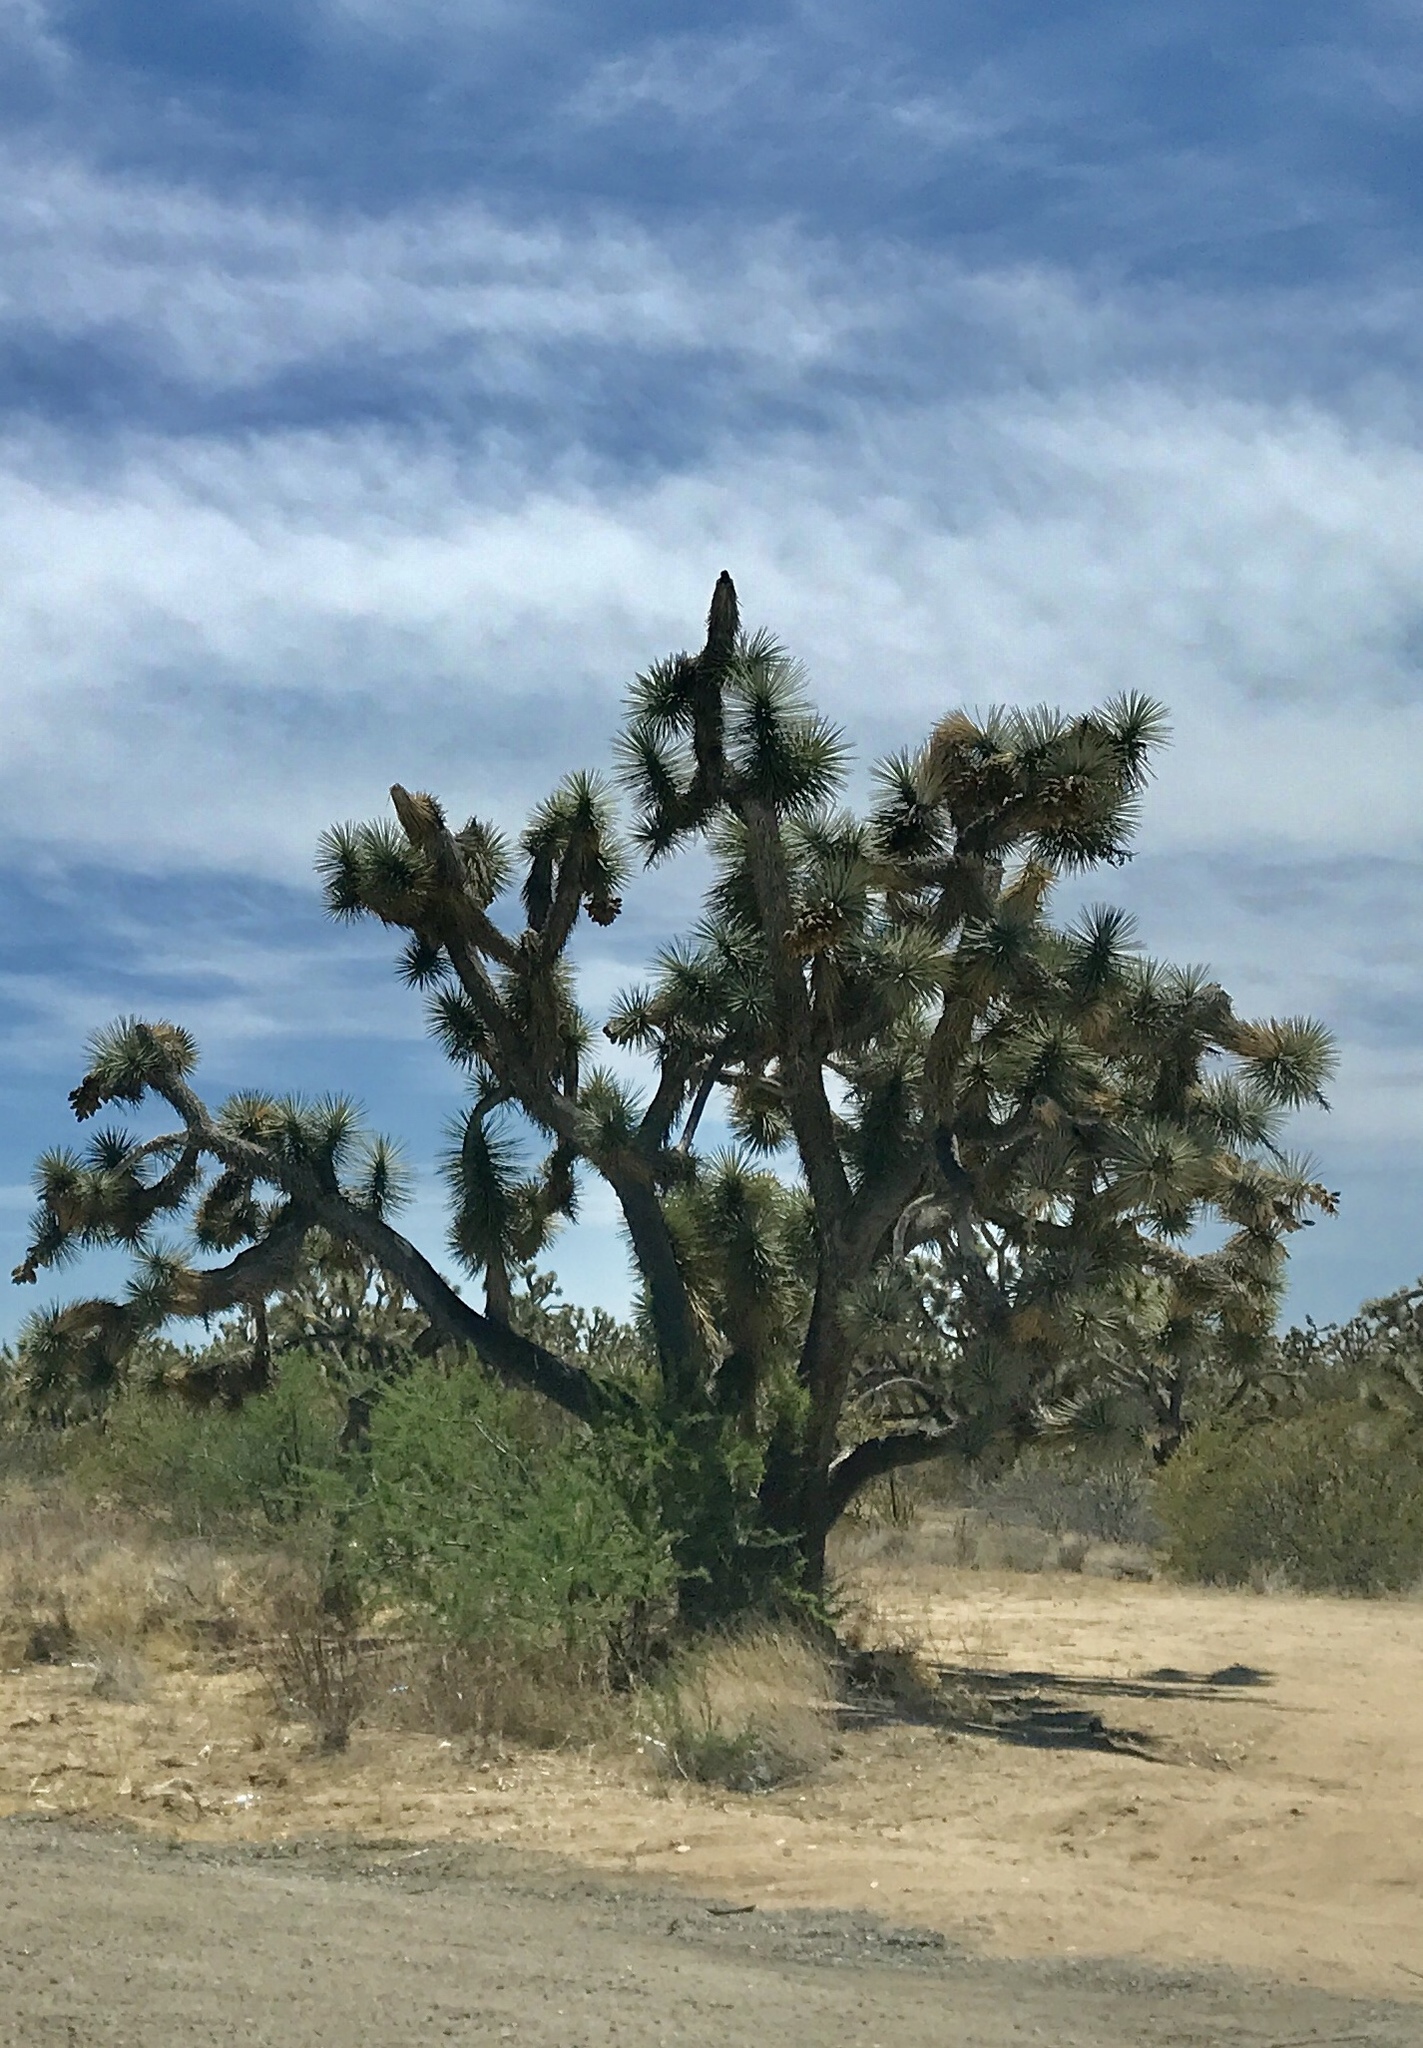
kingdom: Plantae
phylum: Tracheophyta
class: Liliopsida
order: Asparagales
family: Asparagaceae
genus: Yucca
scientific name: Yucca brevifolia
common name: Joshua tree
